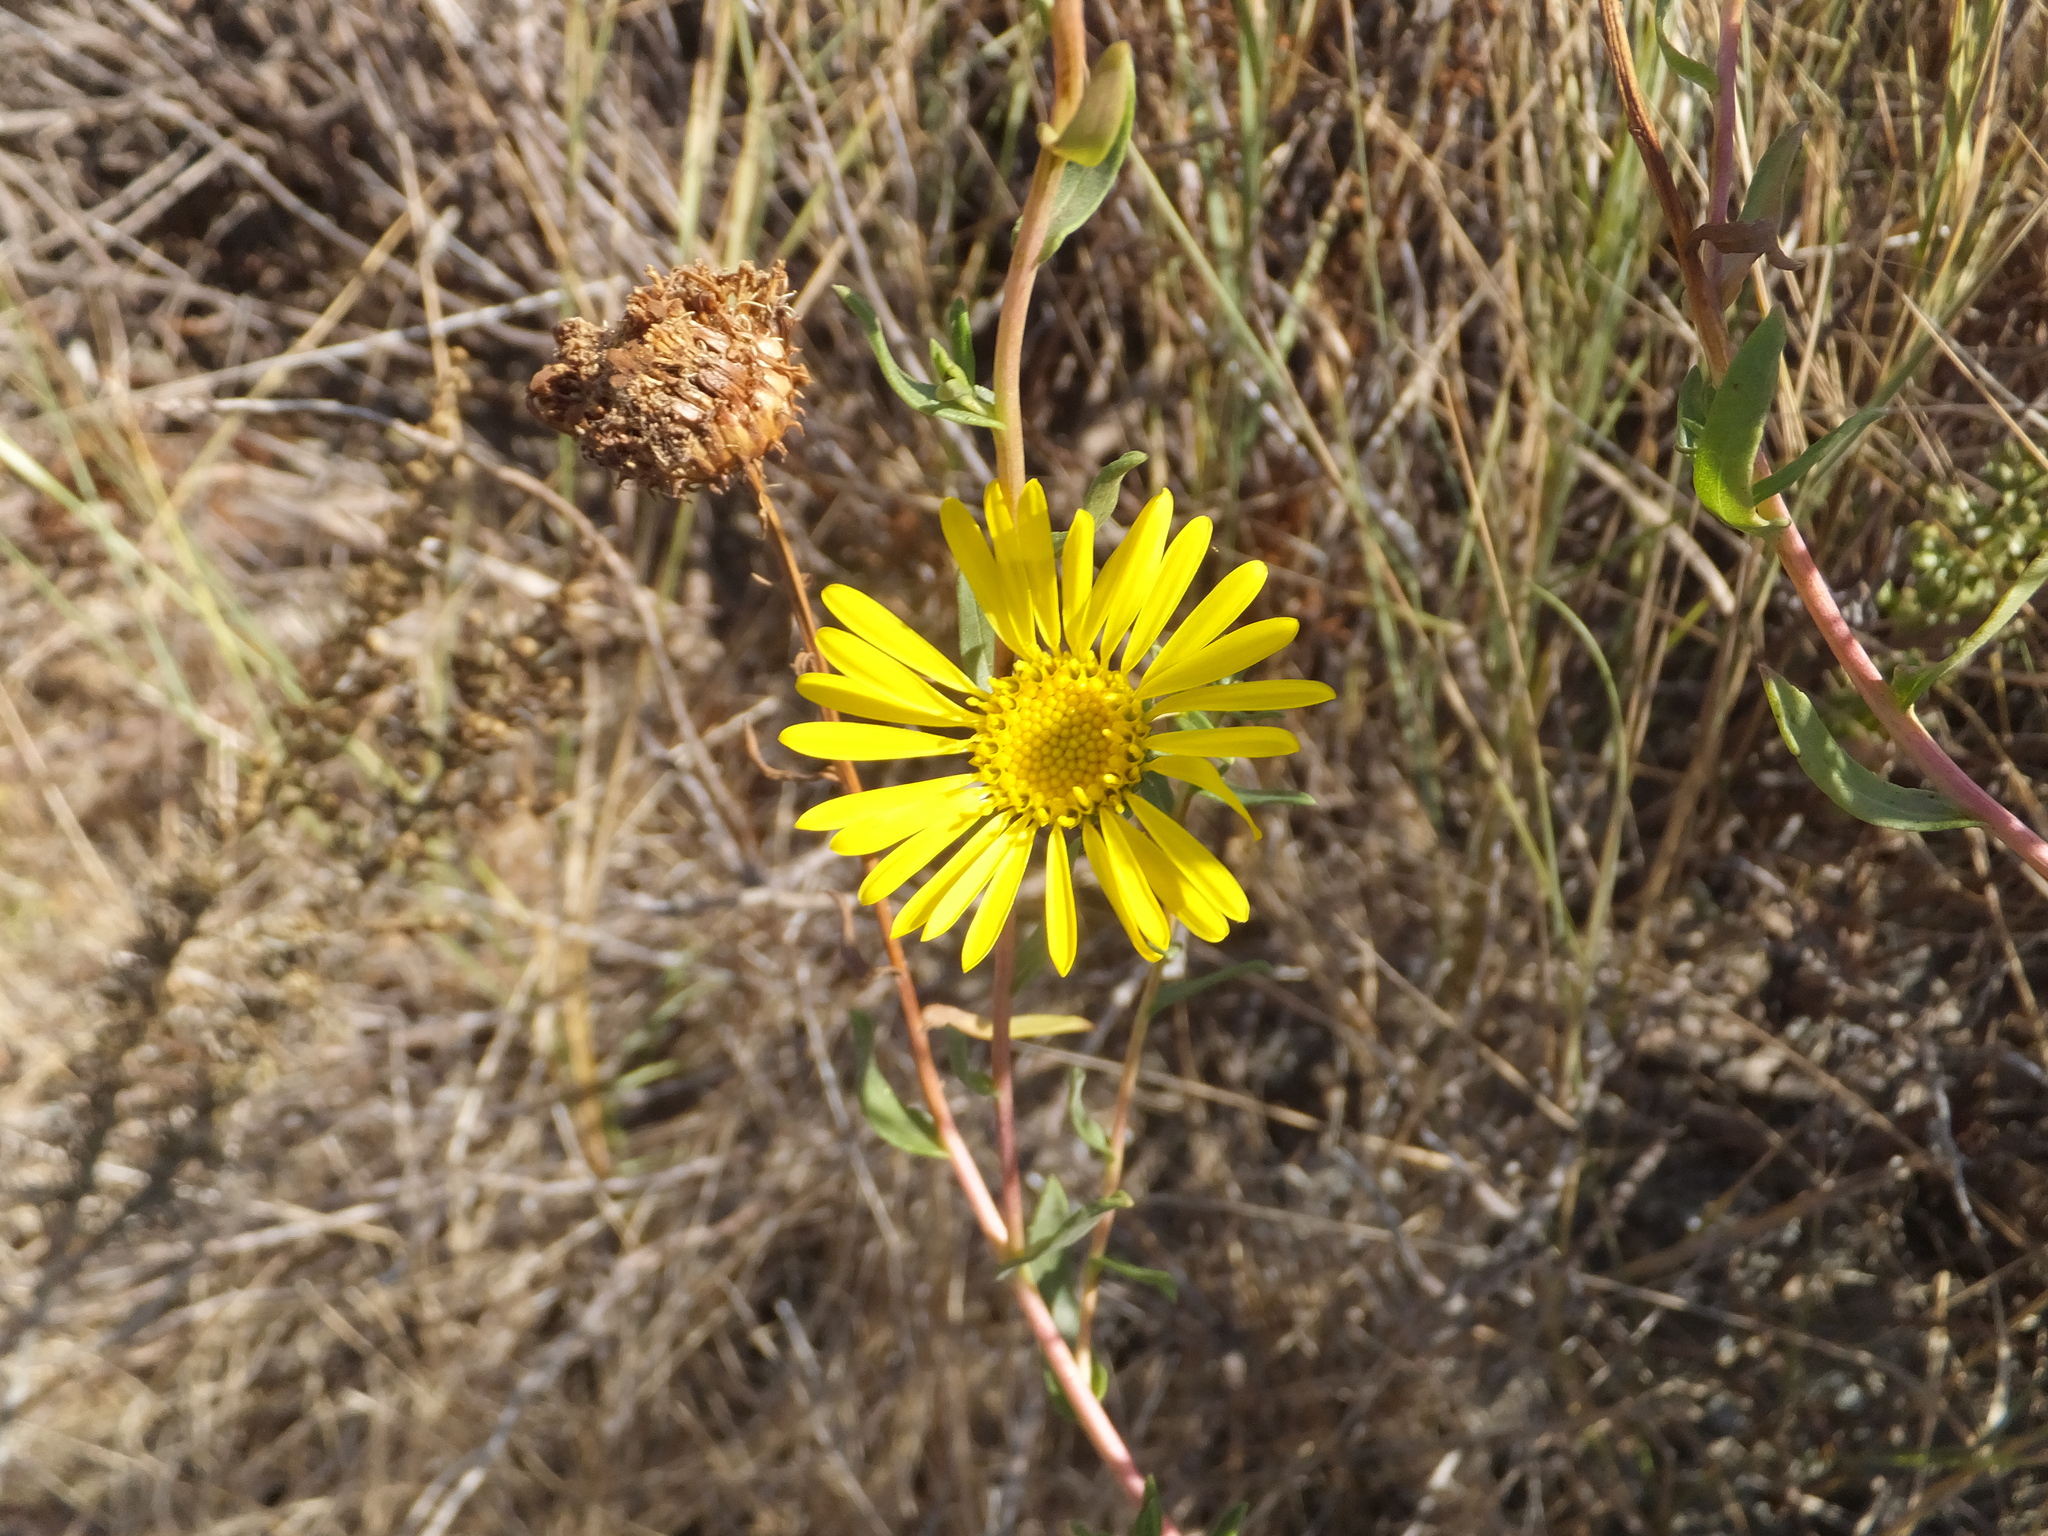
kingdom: Plantae
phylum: Tracheophyta
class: Magnoliopsida
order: Asterales
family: Asteraceae
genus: Grindelia
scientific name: Grindelia hirsutula
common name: Hairy gumweed
